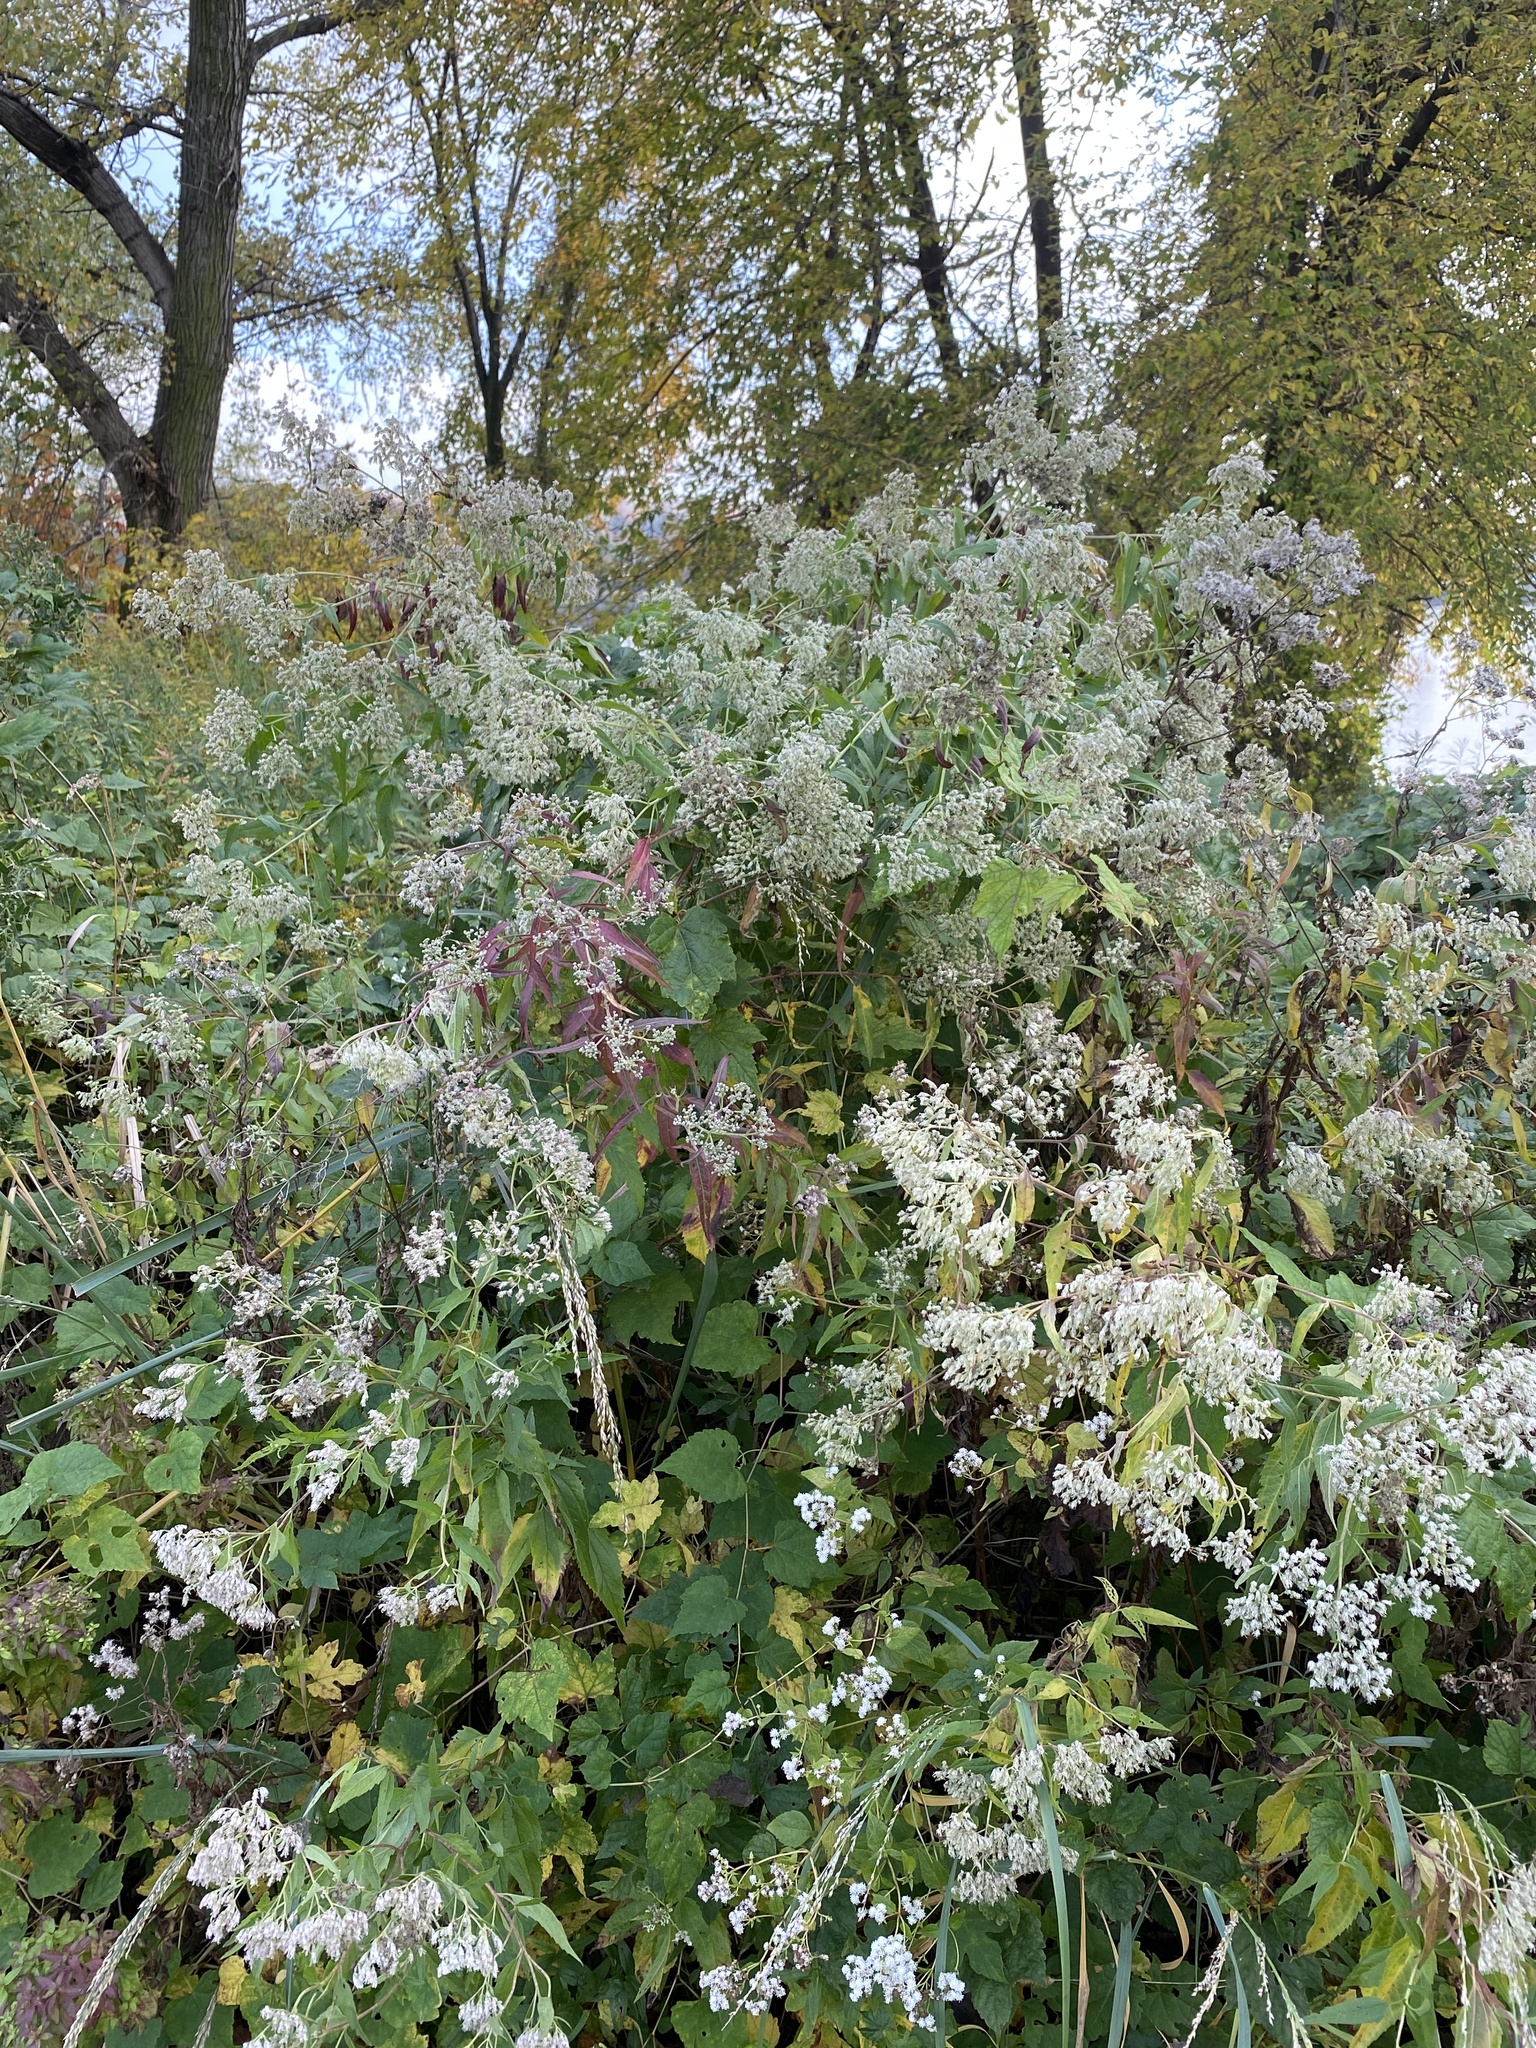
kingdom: Plantae
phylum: Tracheophyta
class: Magnoliopsida
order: Asterales
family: Asteraceae
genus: Eupatorium
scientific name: Eupatorium serotinum
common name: Late boneset
